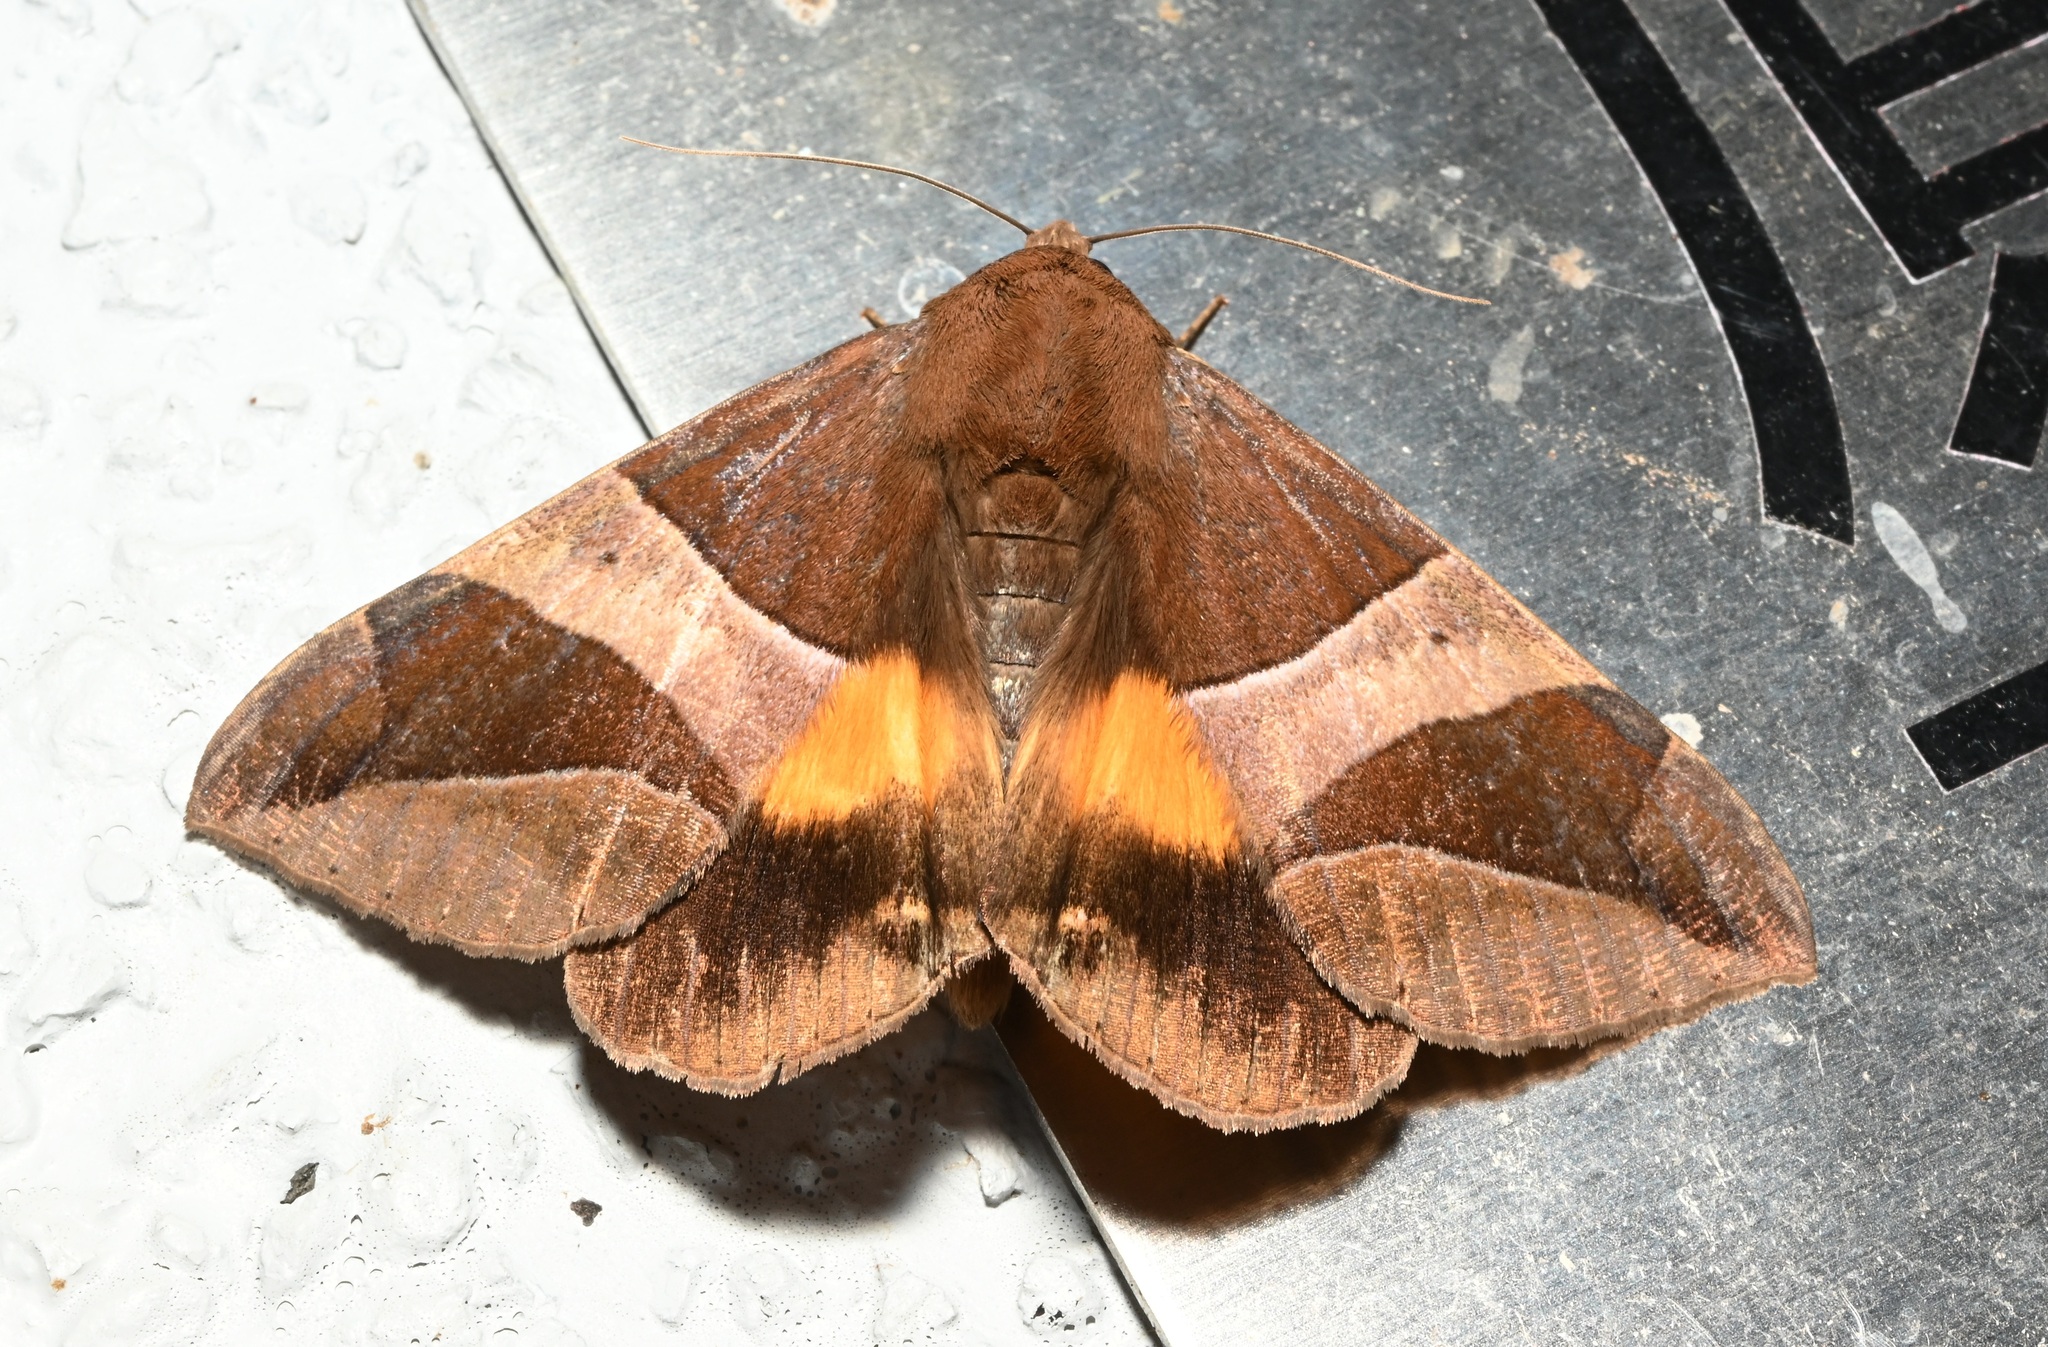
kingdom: Animalia
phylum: Arthropoda
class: Insecta
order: Lepidoptera
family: Erebidae
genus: Bastilla
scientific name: Bastilla fulvotaenia
